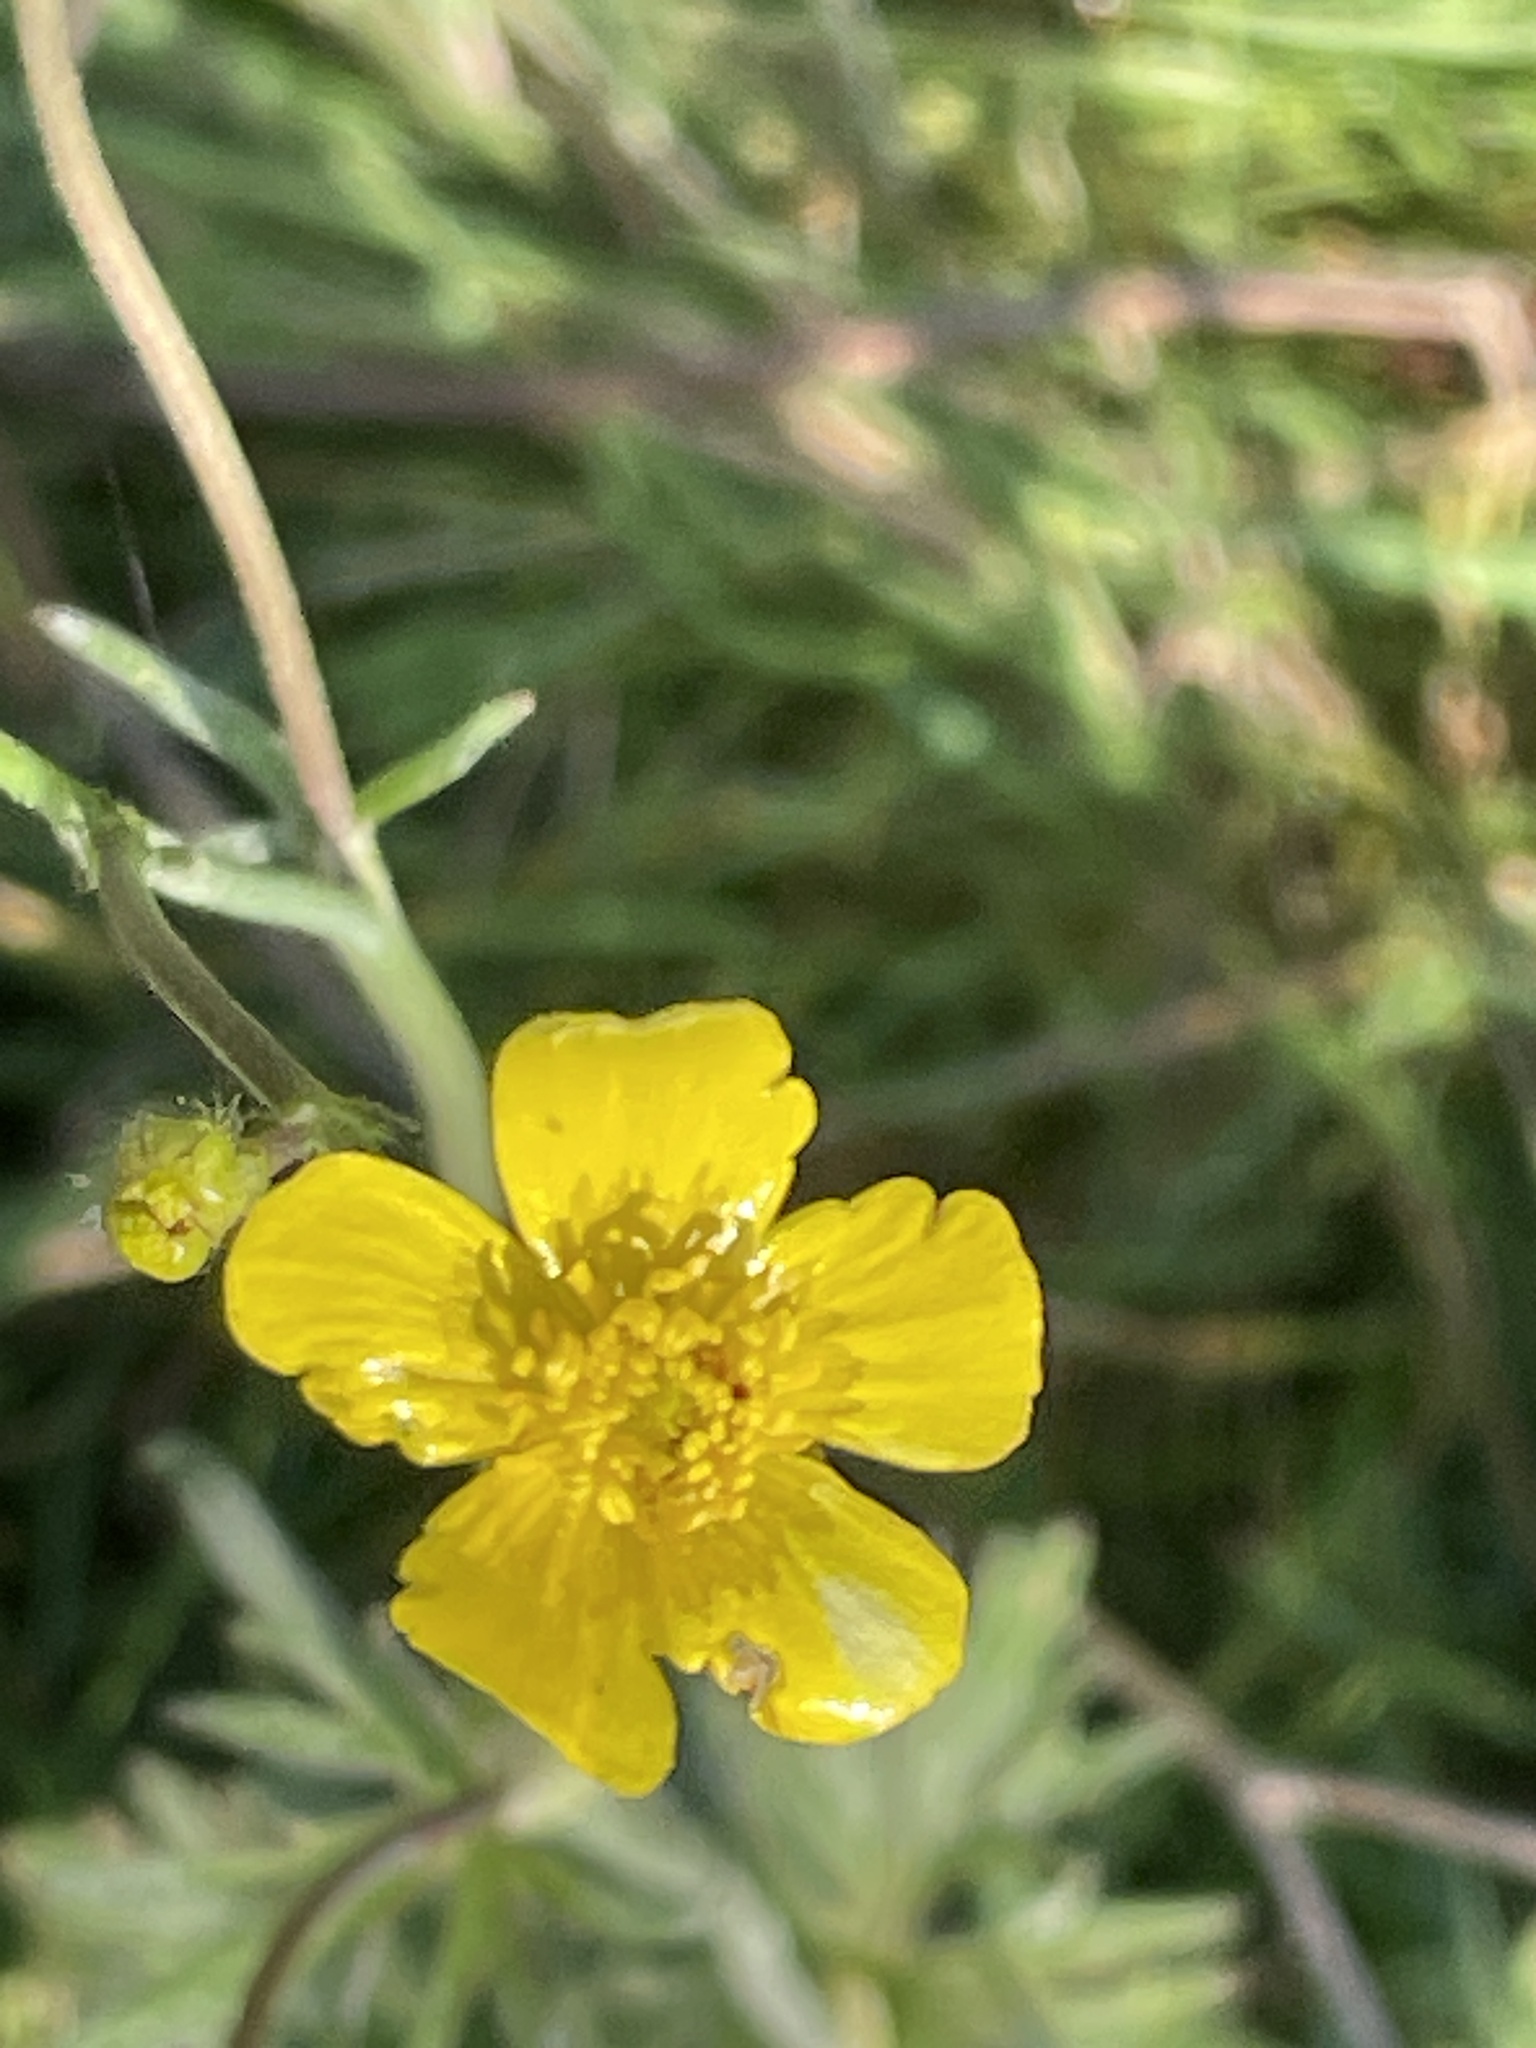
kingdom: Plantae
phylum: Tracheophyta
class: Magnoliopsida
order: Ranunculales
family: Ranunculaceae
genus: Ranunculus
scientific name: Ranunculus acris
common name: Meadow buttercup
